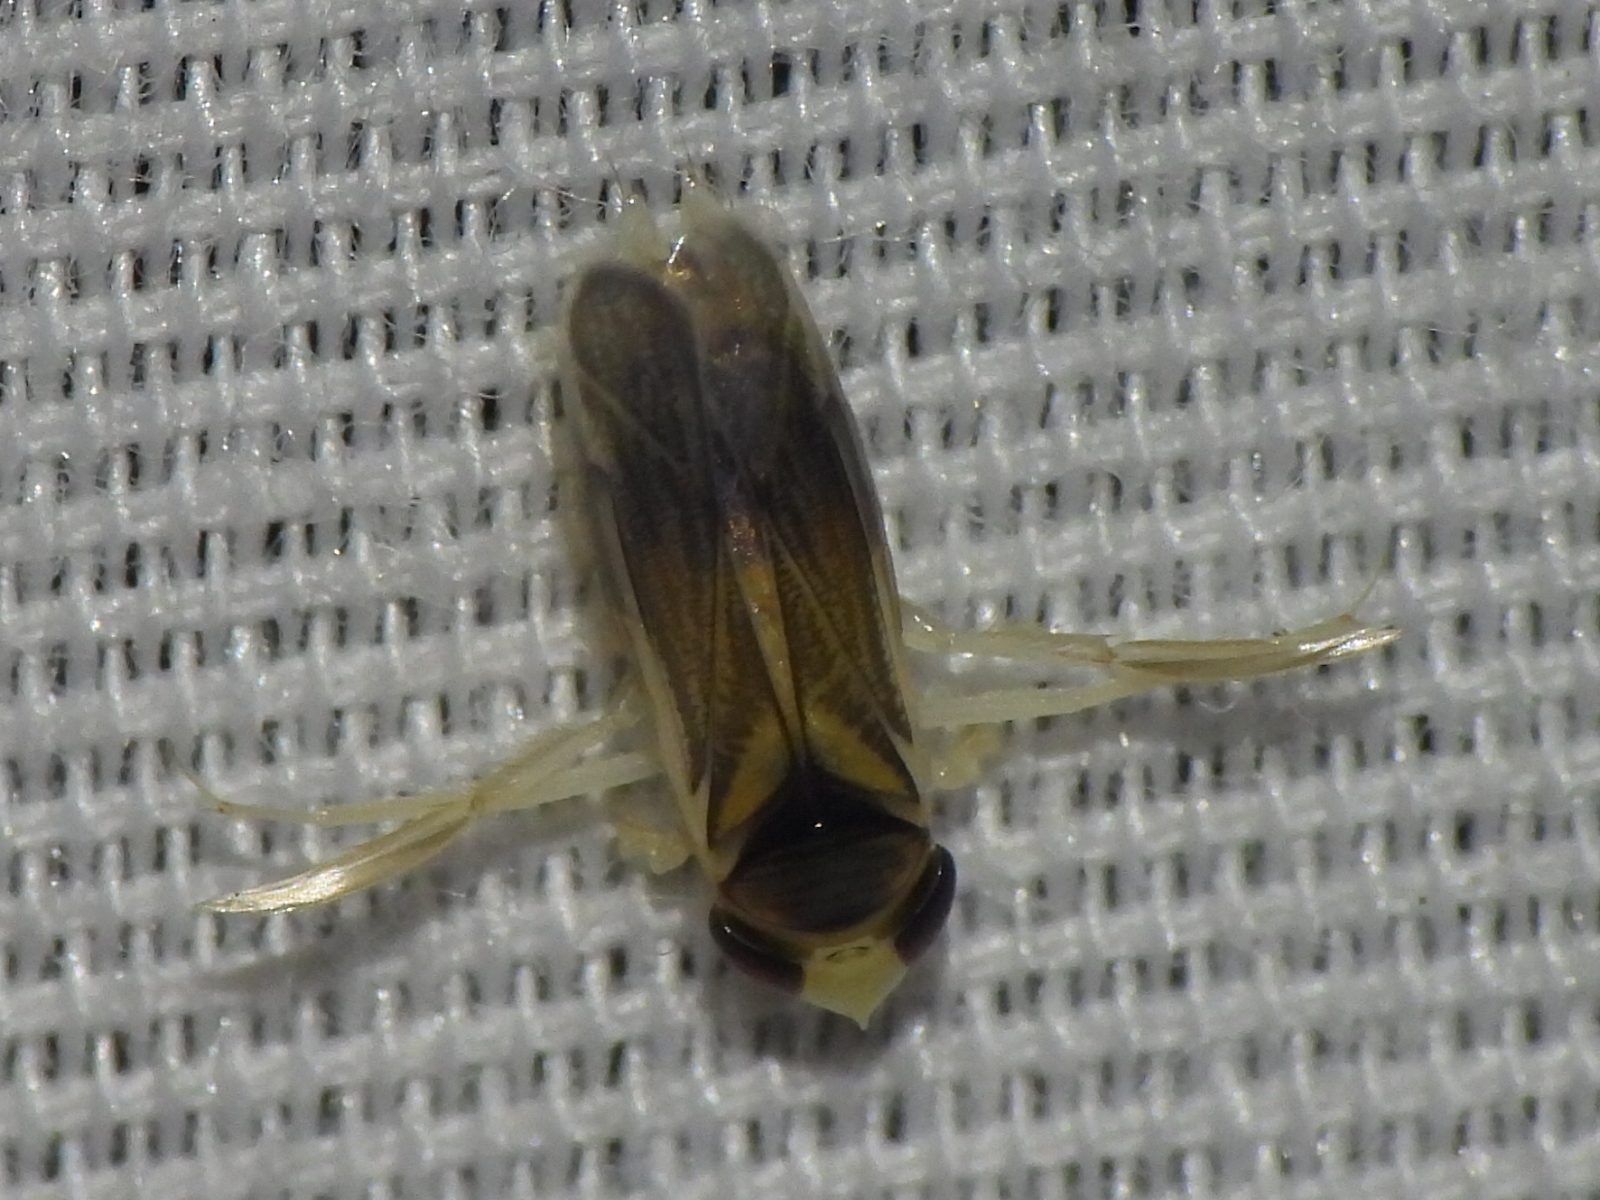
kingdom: Animalia
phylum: Arthropoda
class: Insecta
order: Hemiptera
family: Corixidae
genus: Ramphocorixa
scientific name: Ramphocorixa acuminata
